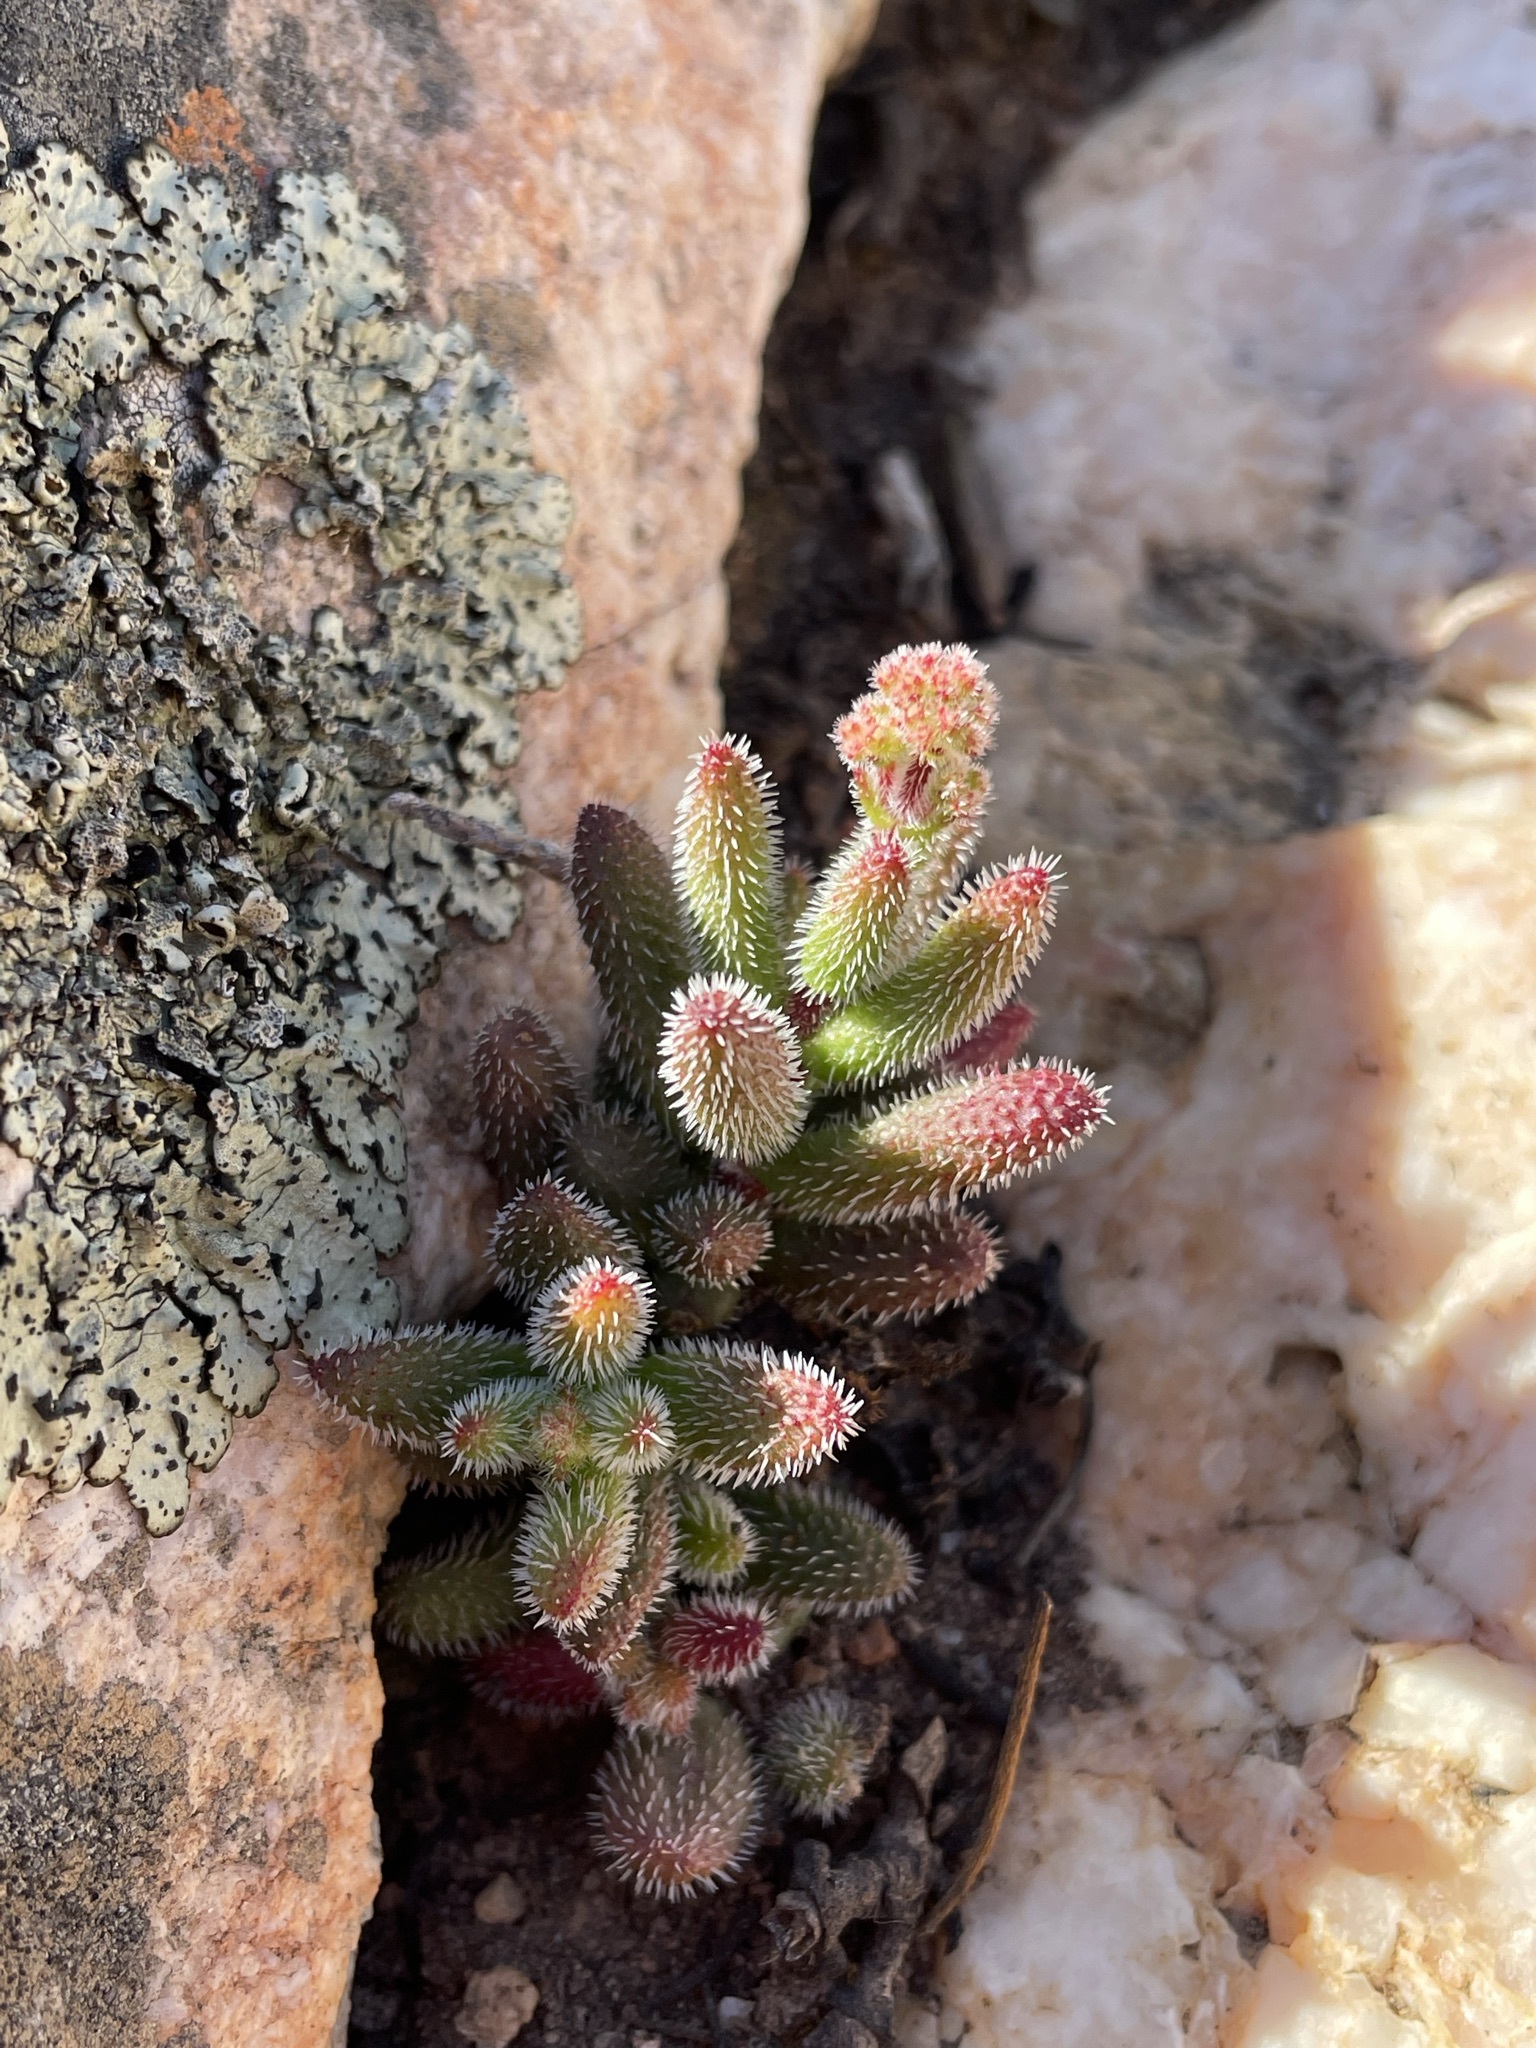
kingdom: Plantae
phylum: Tracheophyta
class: Magnoliopsida
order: Saxifragales
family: Crassulaceae
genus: Crassula
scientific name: Crassula hirtipes
